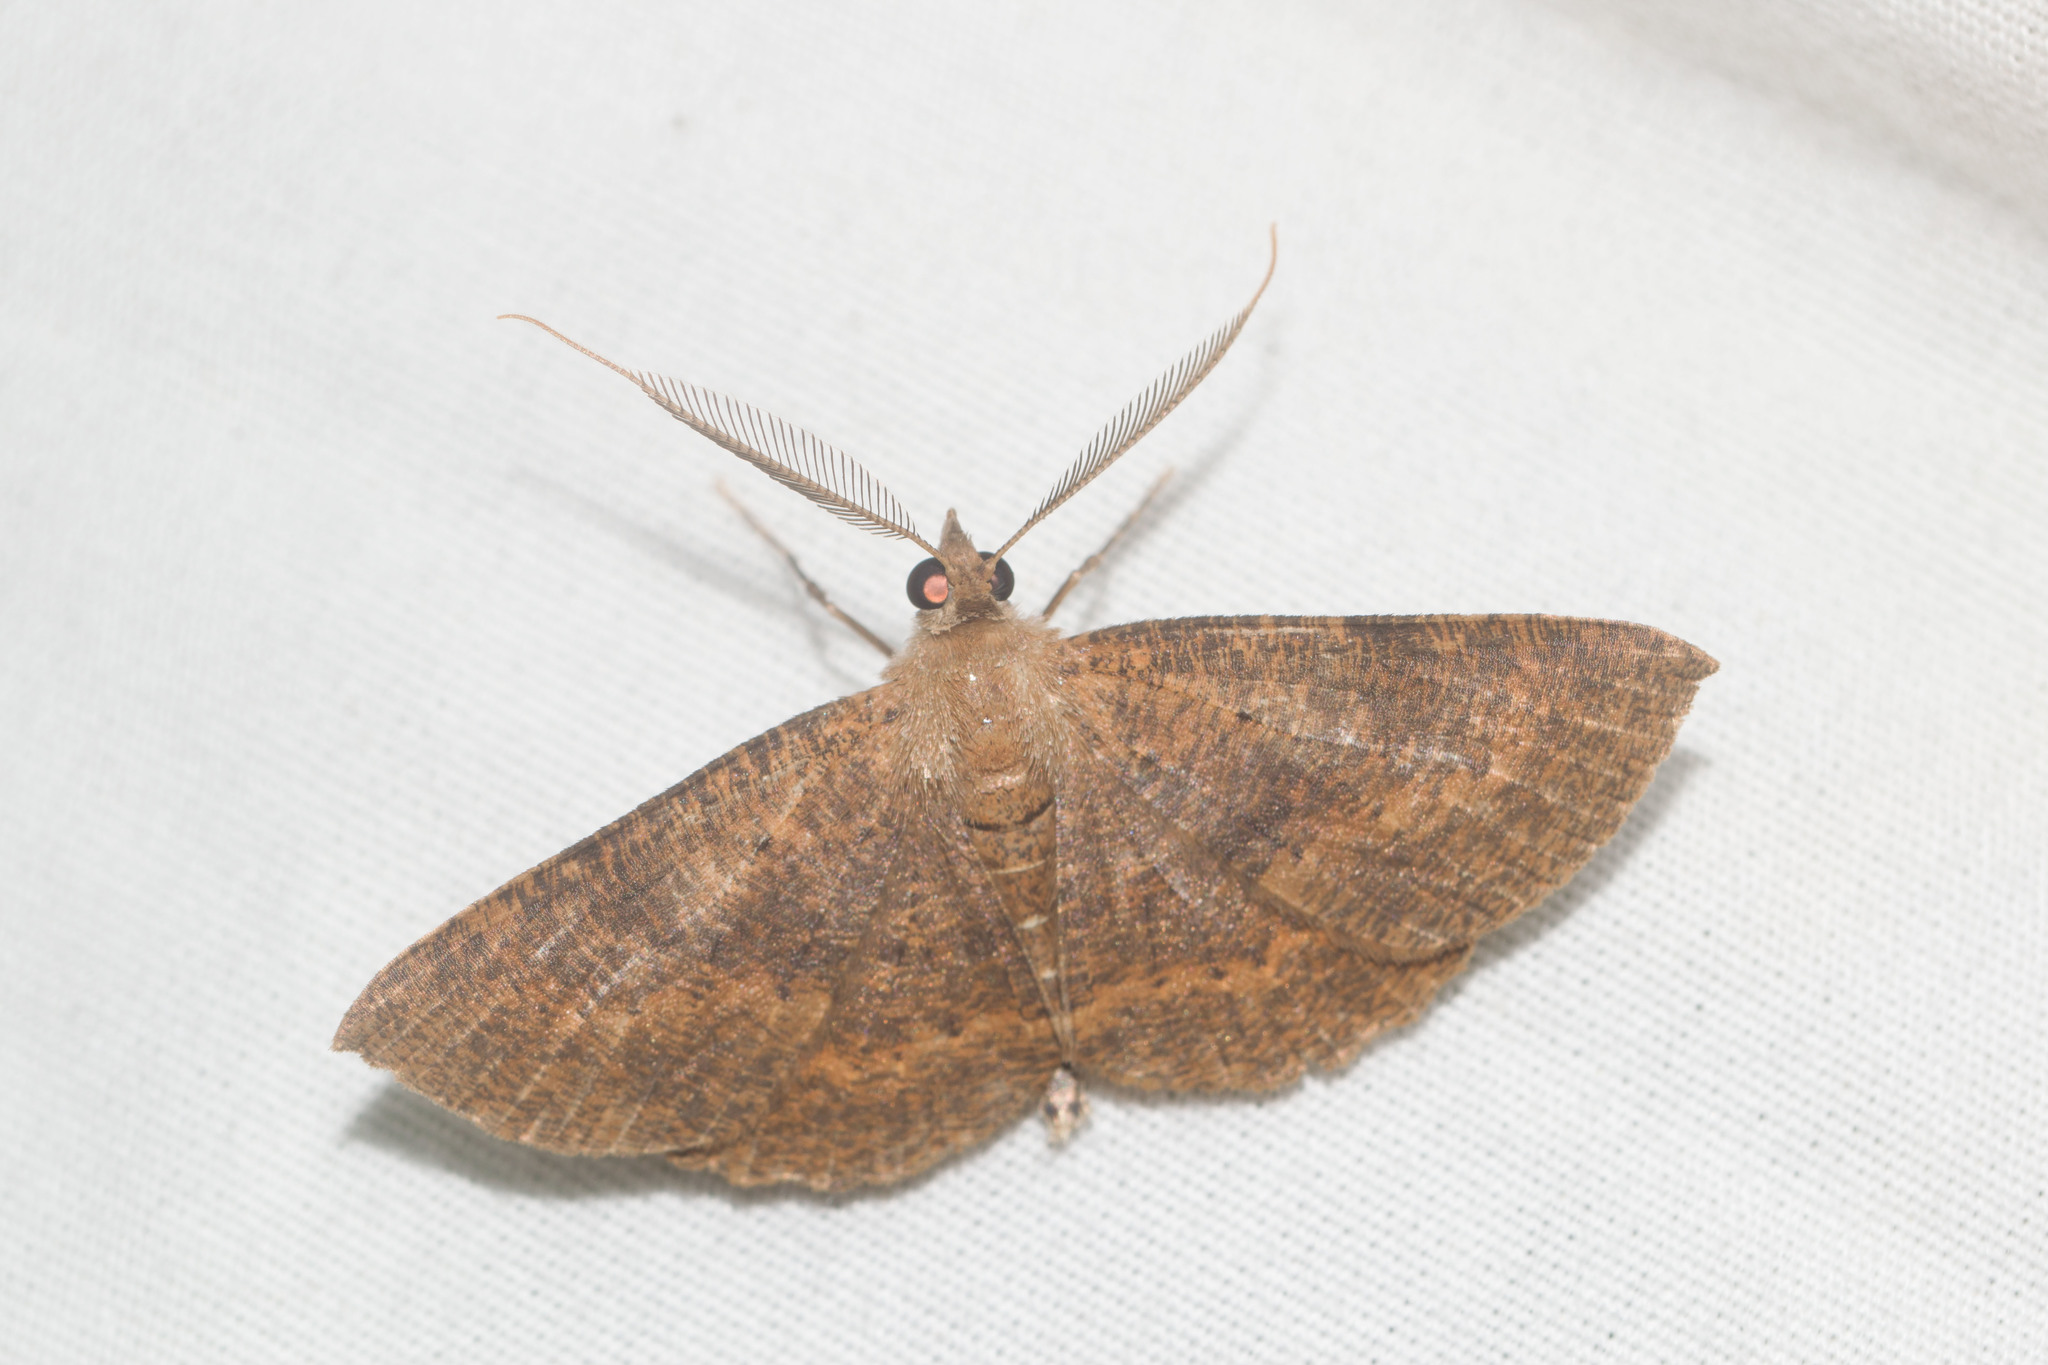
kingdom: Animalia
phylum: Arthropoda
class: Insecta
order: Lepidoptera
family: Geometridae
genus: Scotorythra
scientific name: Scotorythra corticea
